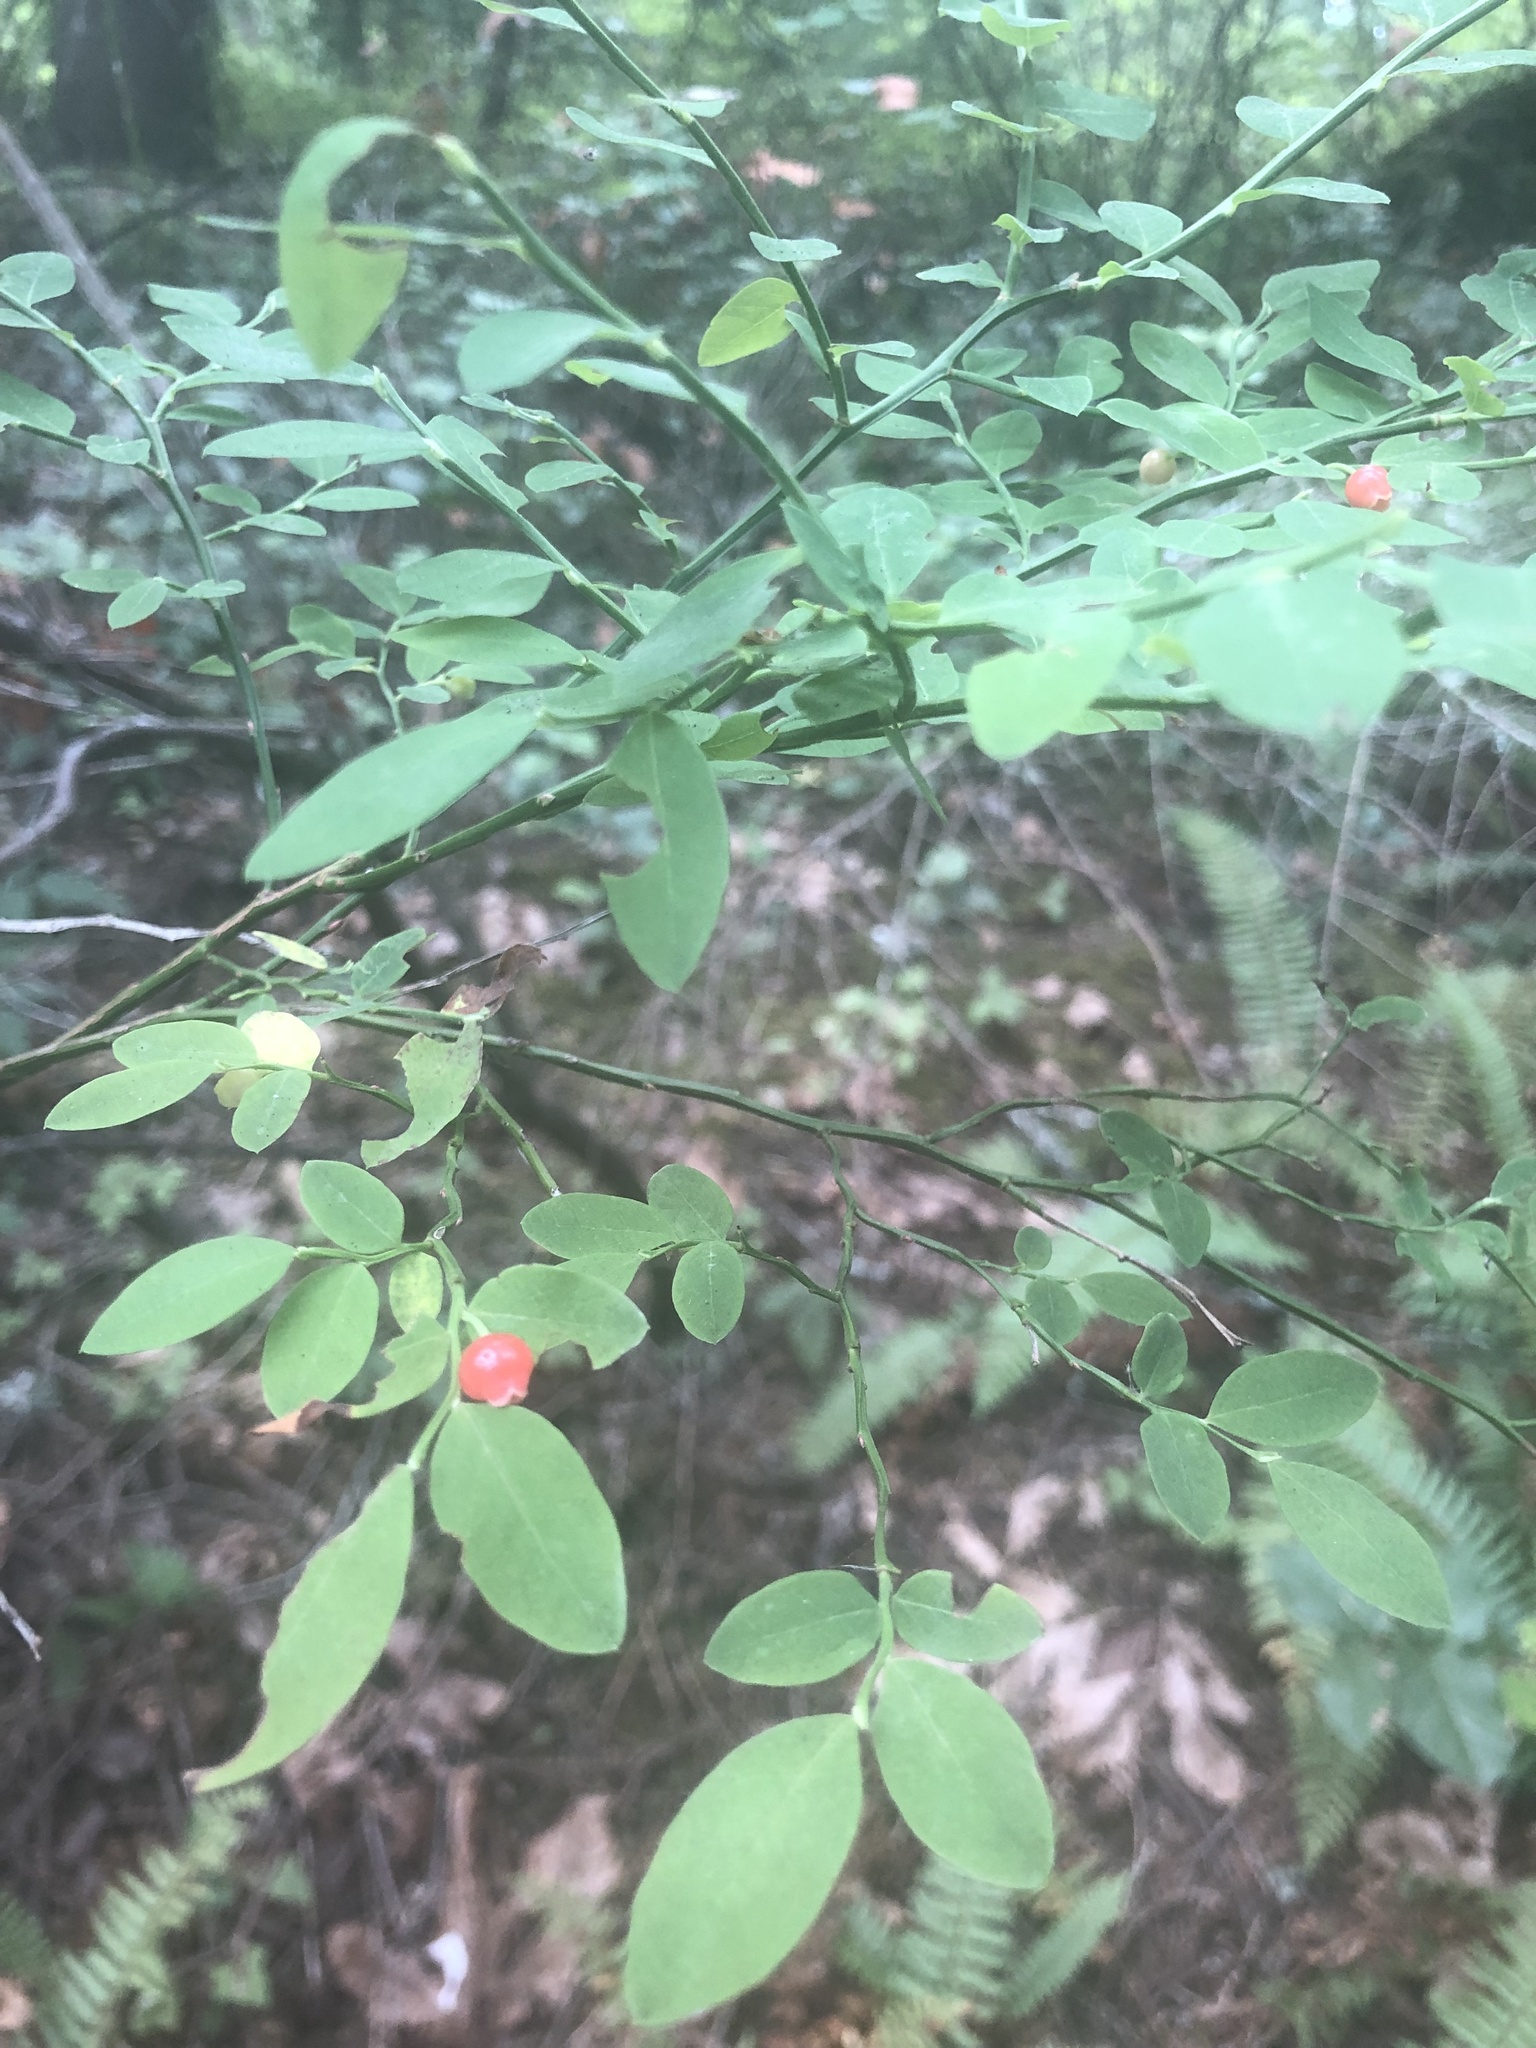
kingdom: Plantae
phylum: Tracheophyta
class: Magnoliopsida
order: Ericales
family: Ericaceae
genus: Vaccinium
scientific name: Vaccinium parvifolium
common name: Red-huckleberry
